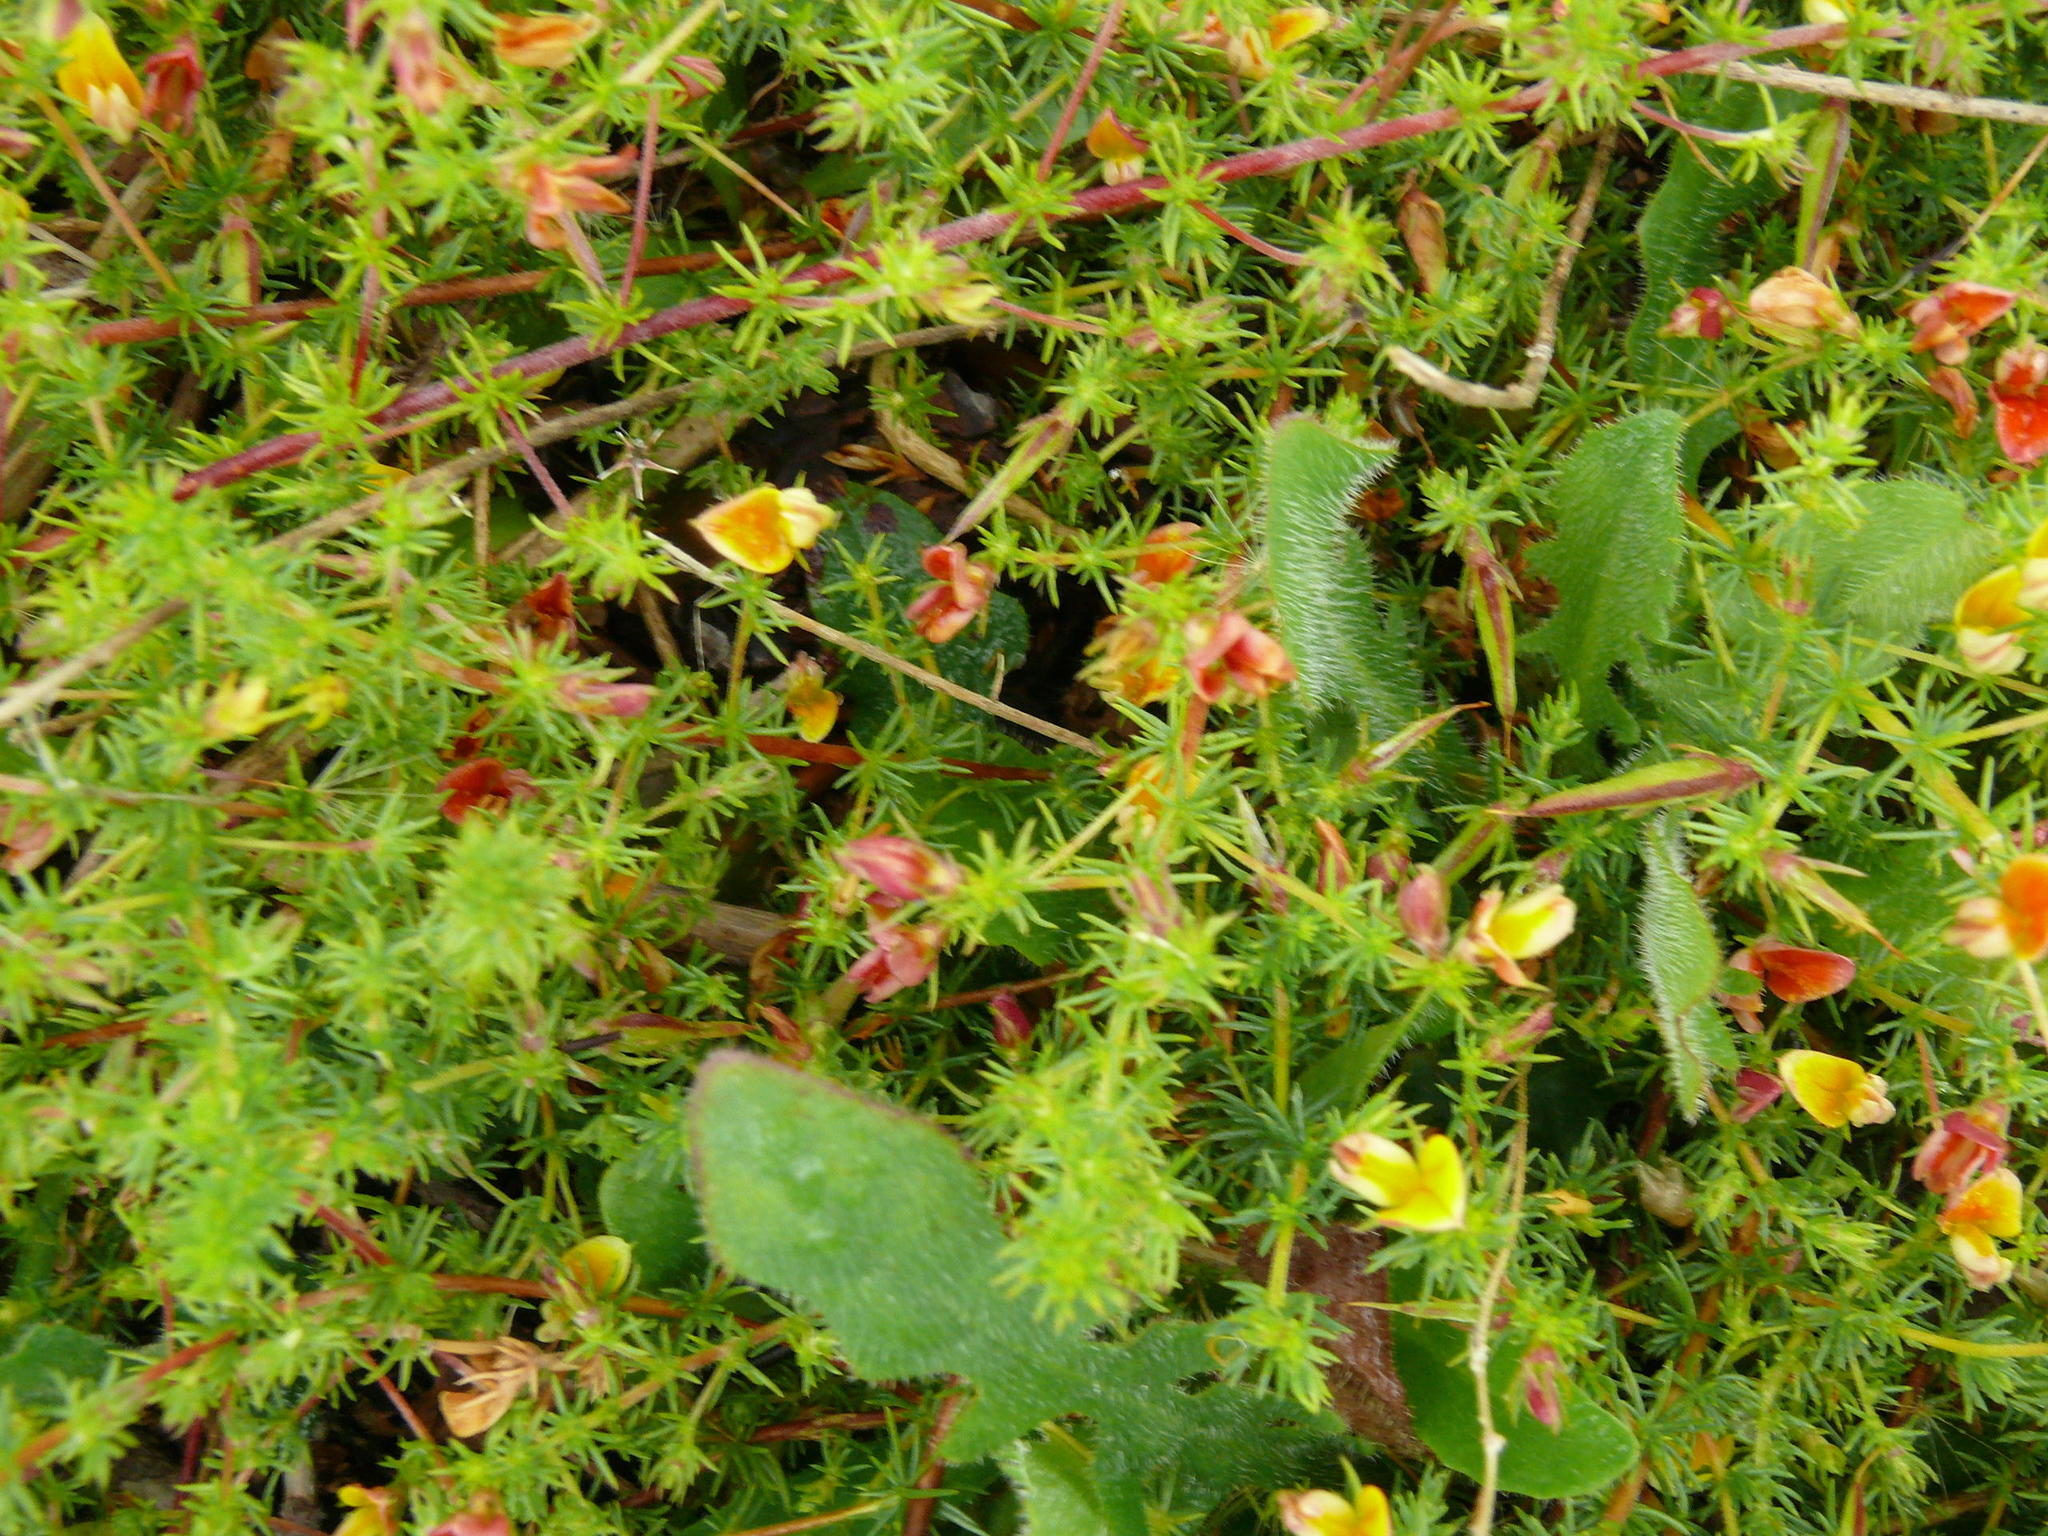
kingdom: Plantae
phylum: Tracheophyta
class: Magnoliopsida
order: Fabales
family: Fabaceae
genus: Aspalathus
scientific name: Aspalathus retroflexa
